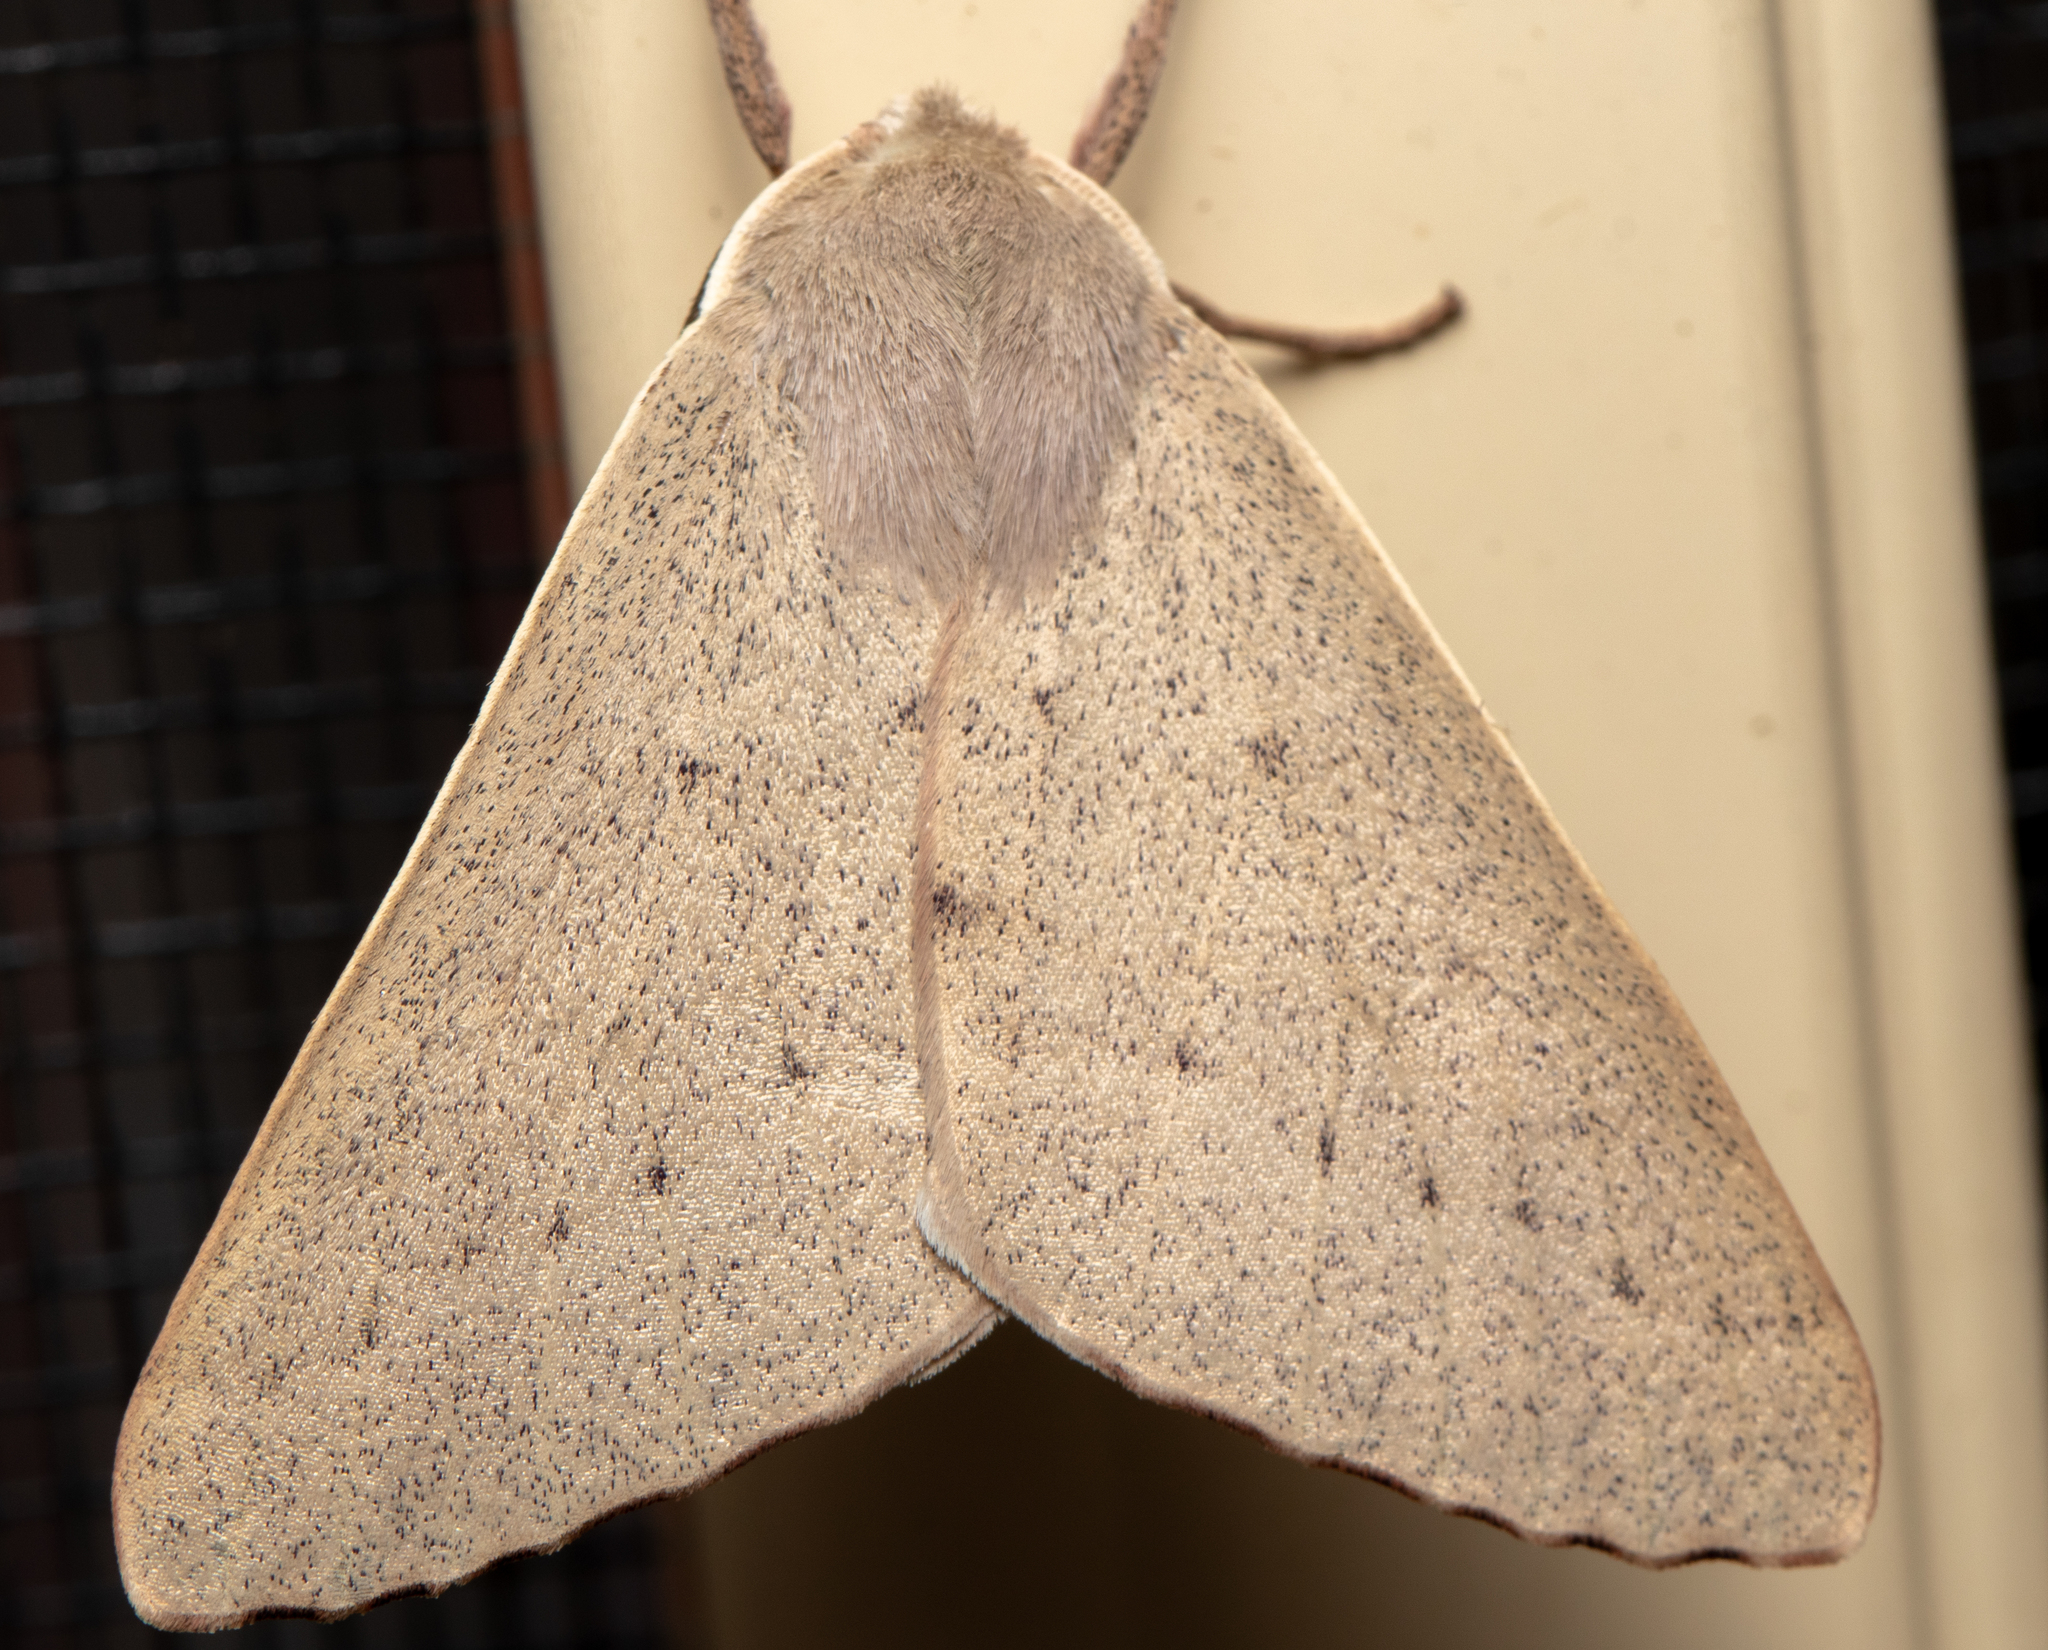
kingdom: Animalia
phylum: Arthropoda
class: Insecta
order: Lepidoptera
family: Geometridae
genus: Arhodia
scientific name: Arhodia lasiocamparia
